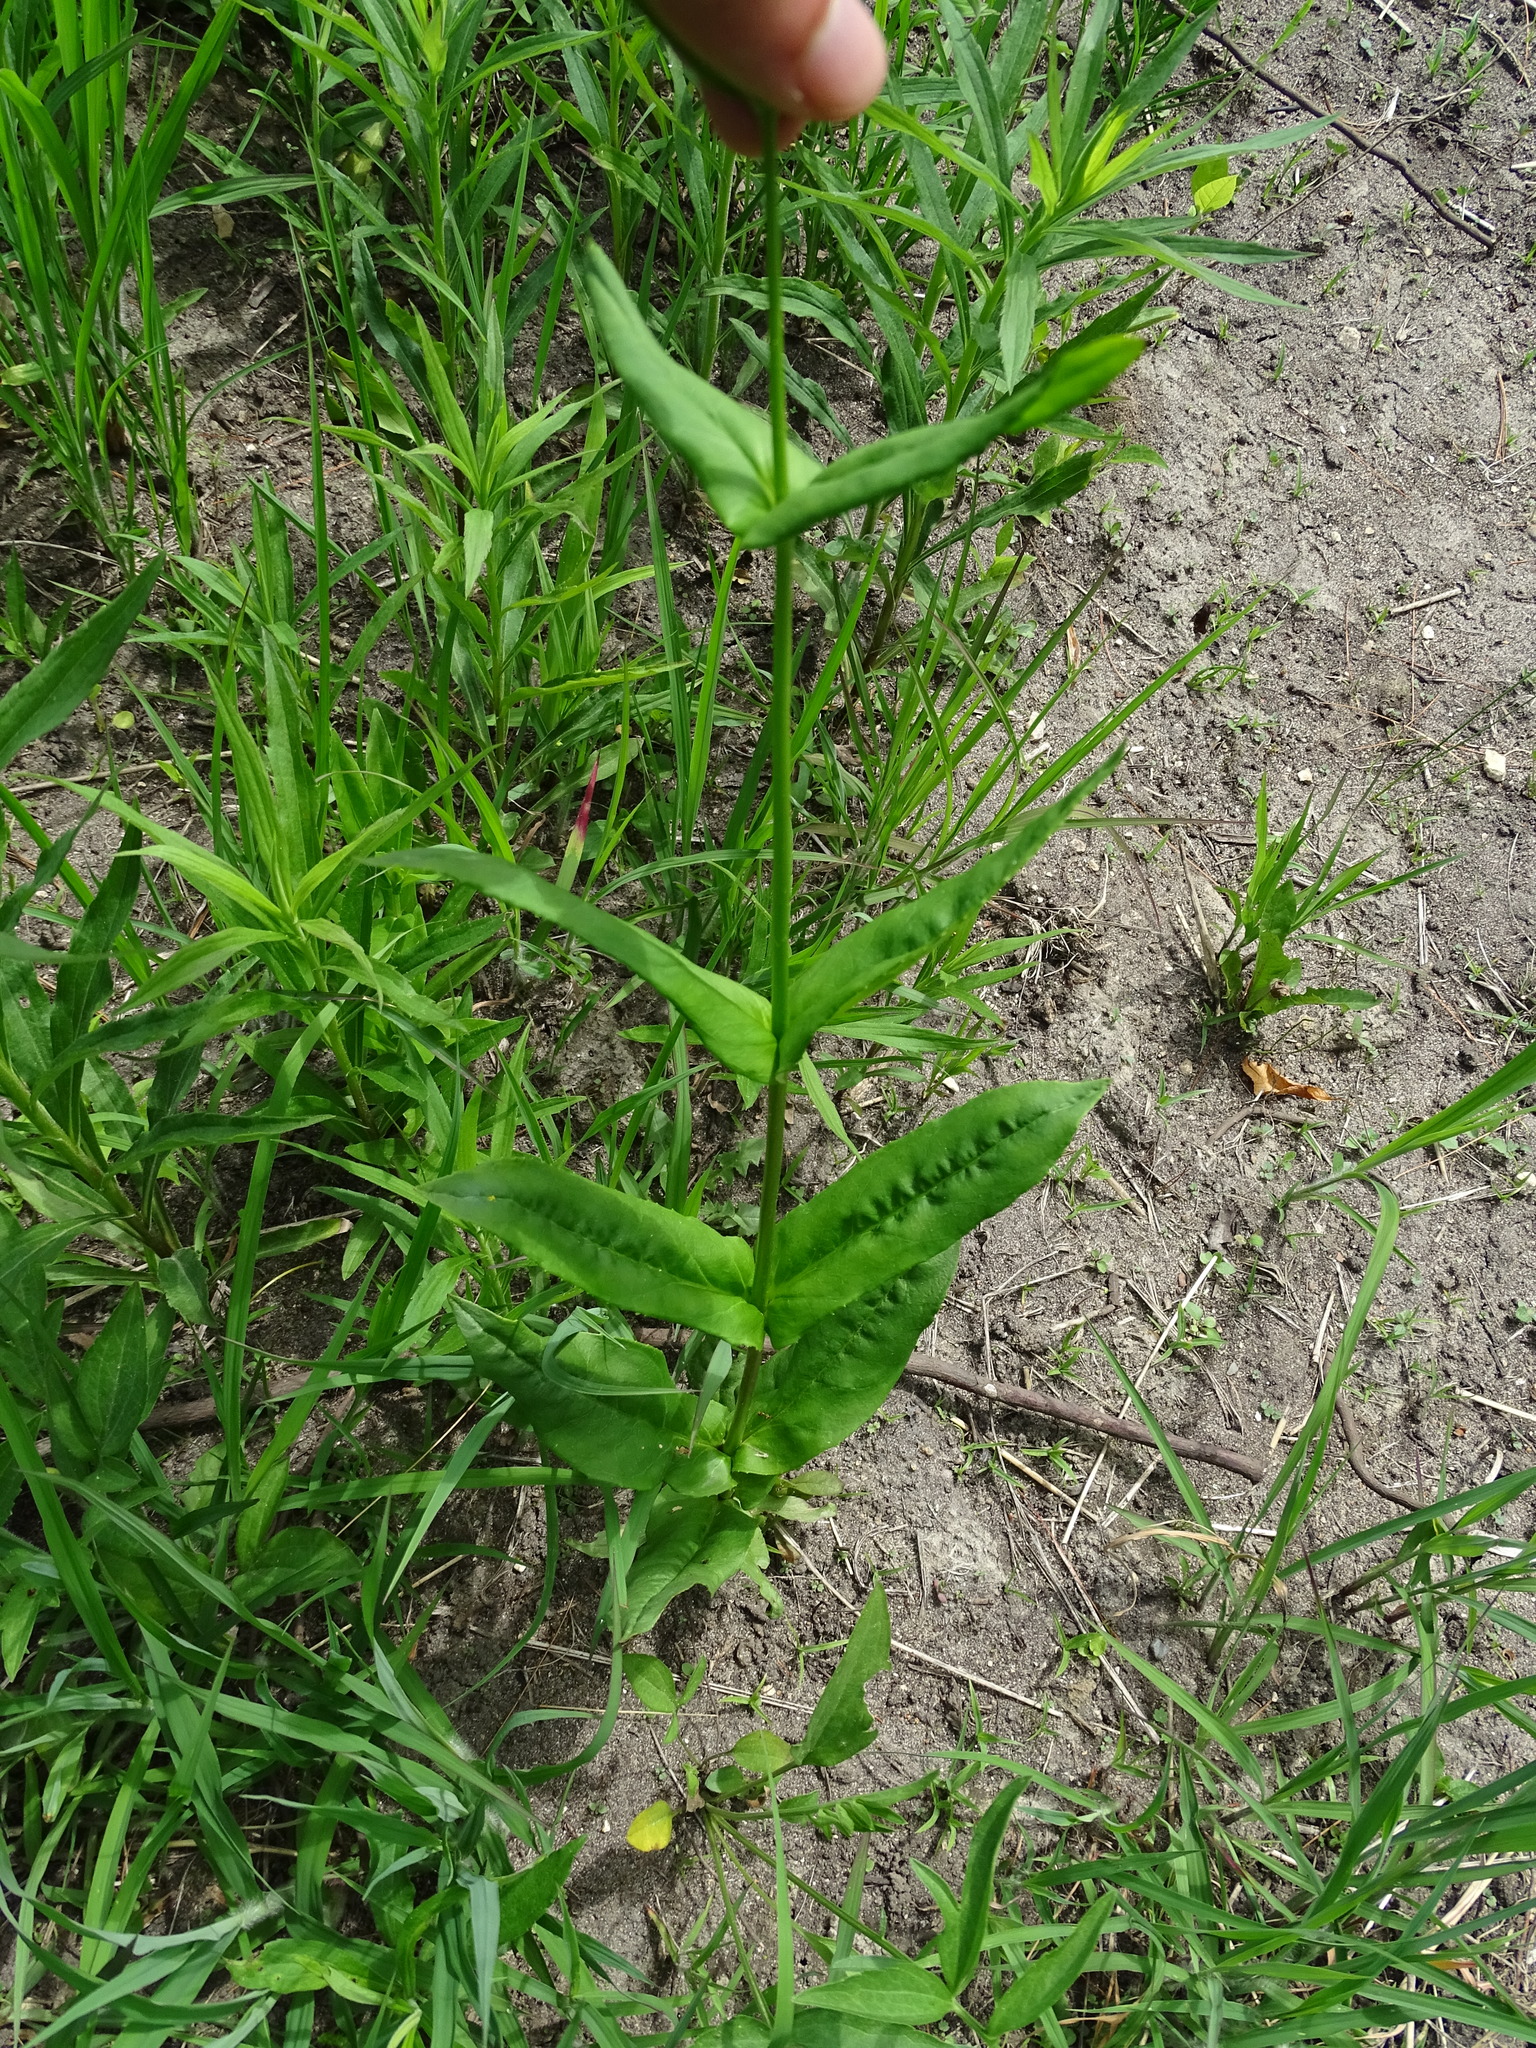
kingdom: Plantae
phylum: Tracheophyta
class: Magnoliopsida
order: Lamiales
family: Plantaginaceae
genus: Penstemon
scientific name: Penstemon digitalis
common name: Foxglove beardtongue
